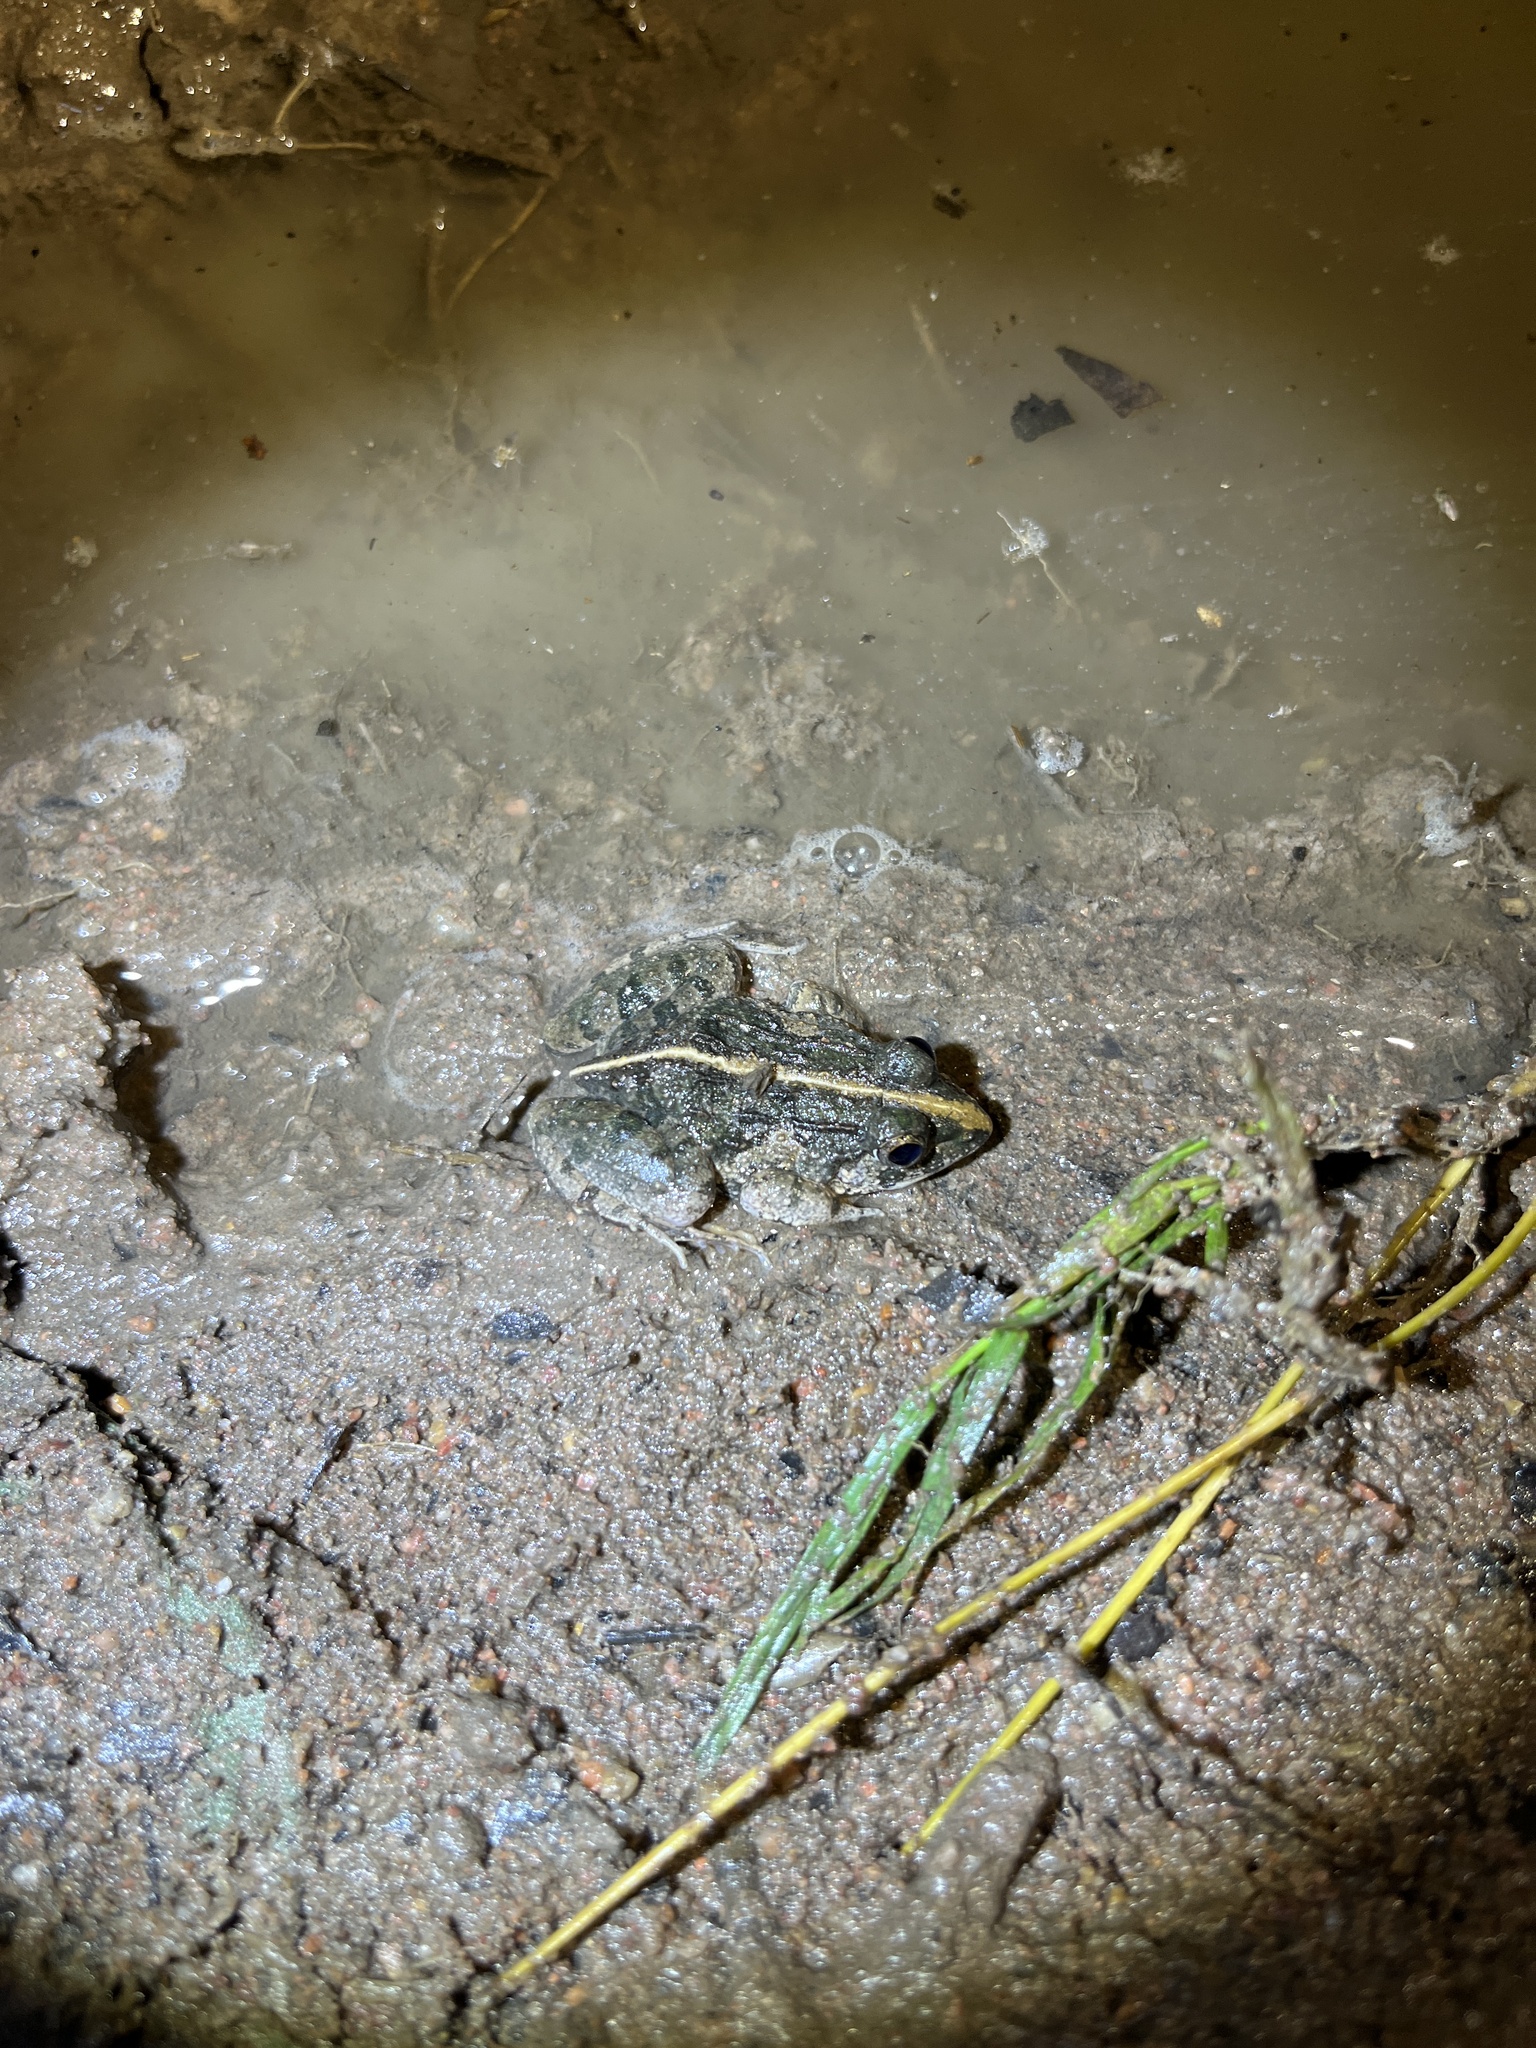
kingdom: Animalia
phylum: Chordata
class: Amphibia
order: Anura
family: Dicroglossidae
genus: Fejervarya
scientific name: Fejervarya limnocharis
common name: Asian grass frog/common pond frog/field frog/grass frog/indian rice frog
